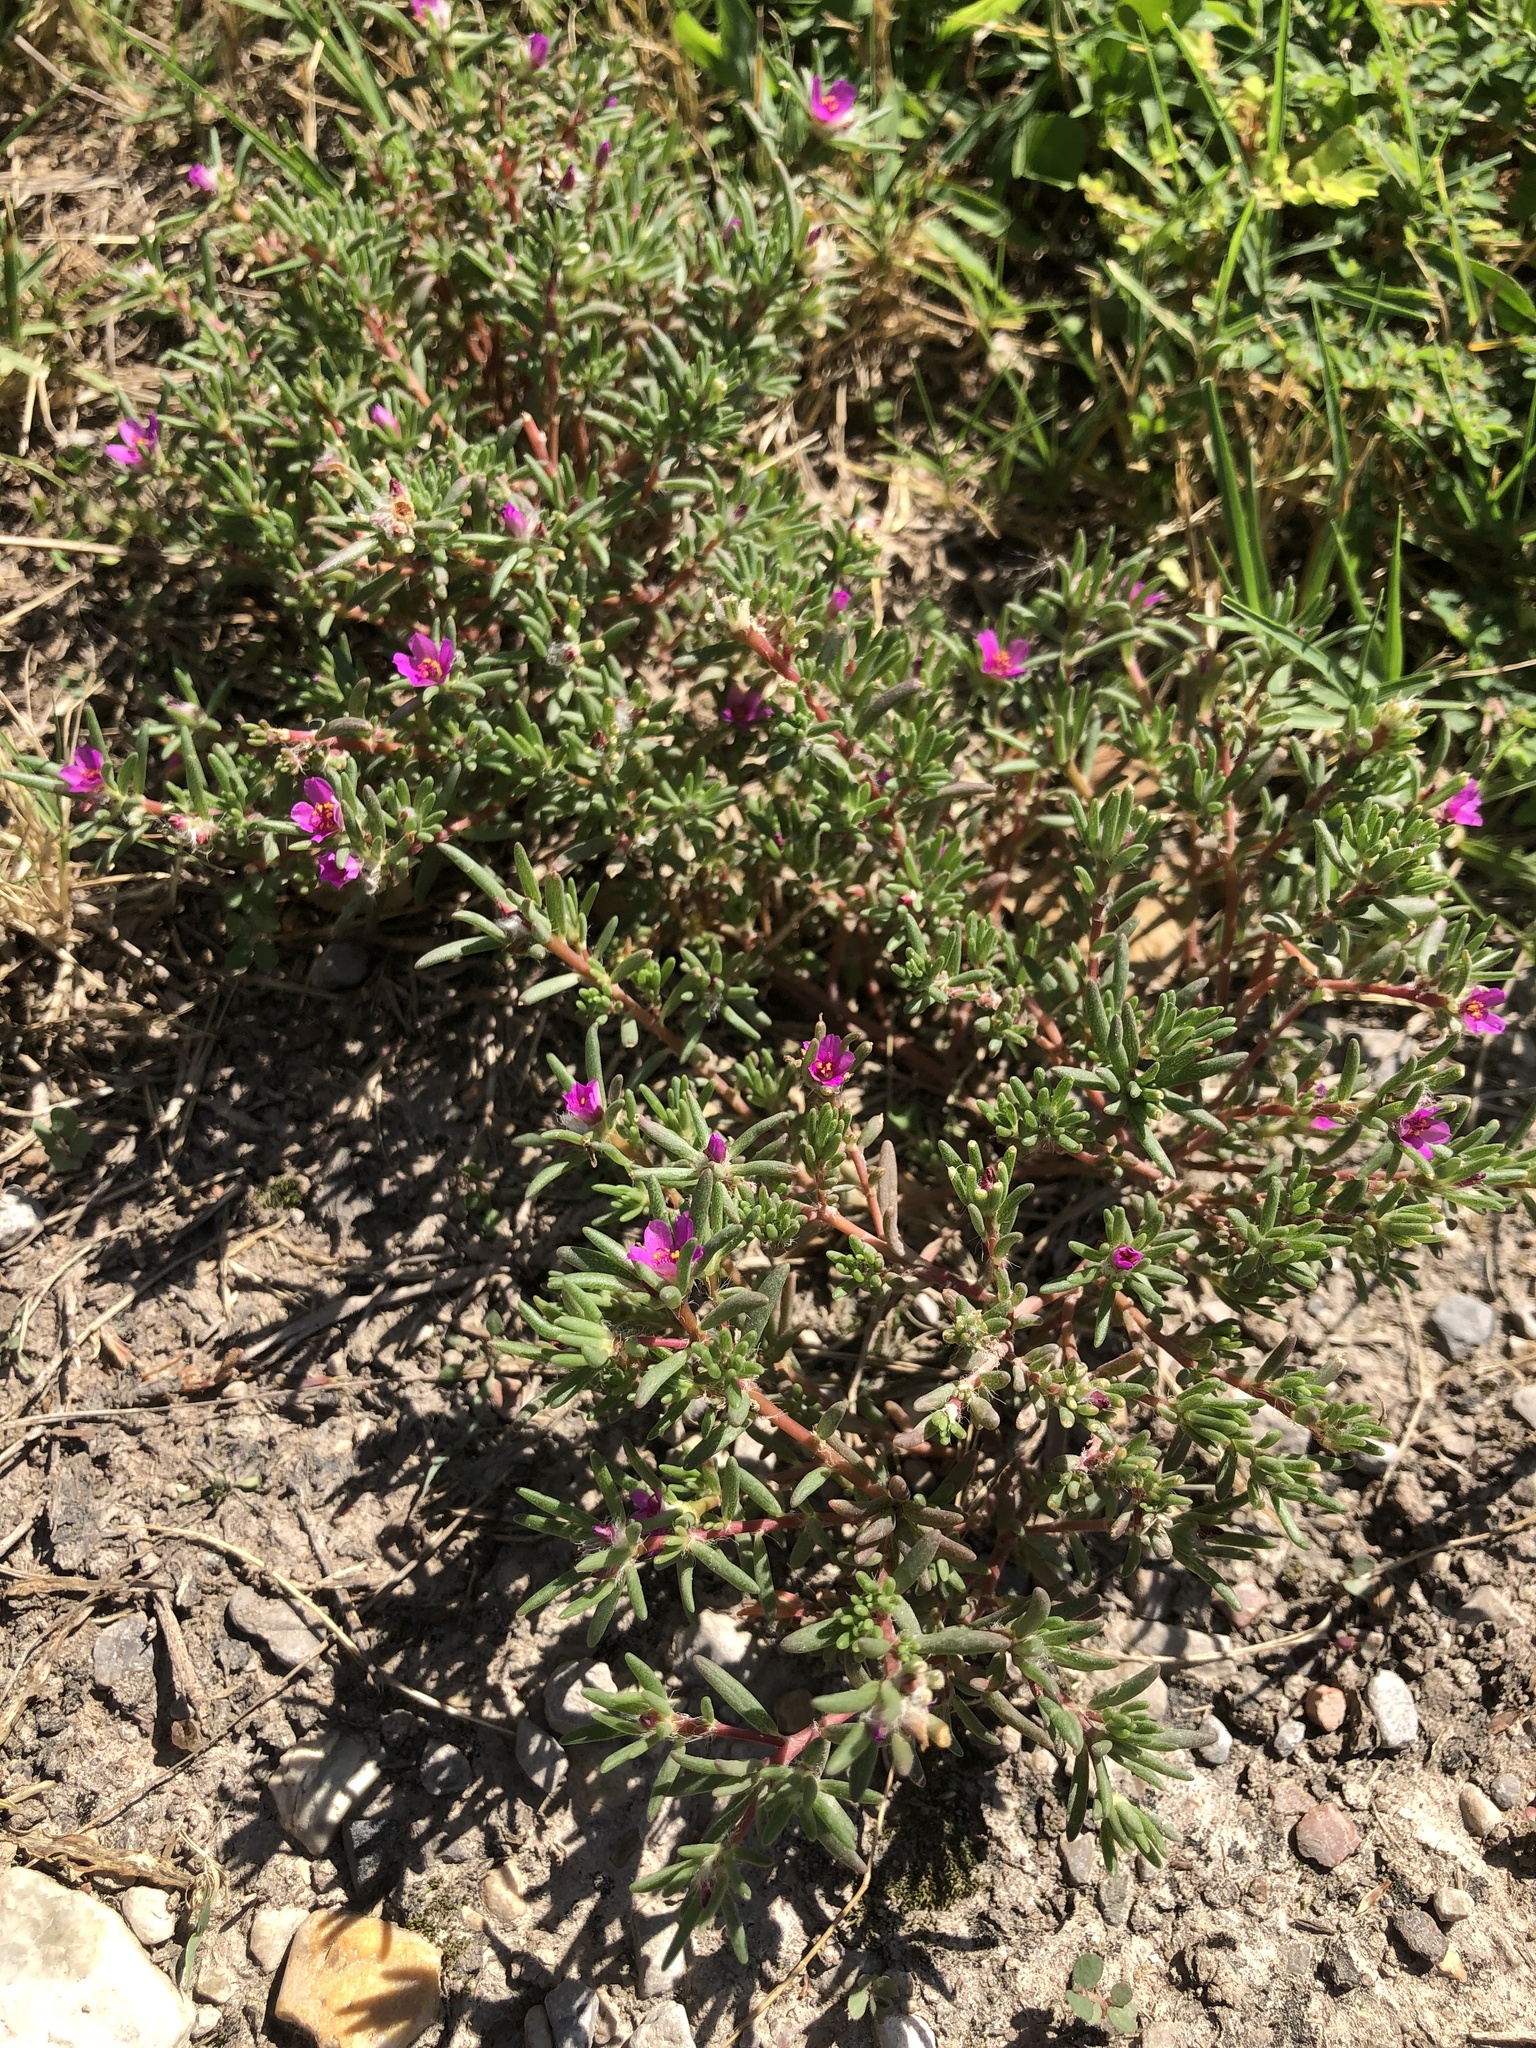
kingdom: Plantae
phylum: Tracheophyta
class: Magnoliopsida
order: Caryophyllales
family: Portulacaceae
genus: Portulaca
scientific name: Portulaca pilosa
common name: Kiss me quick
